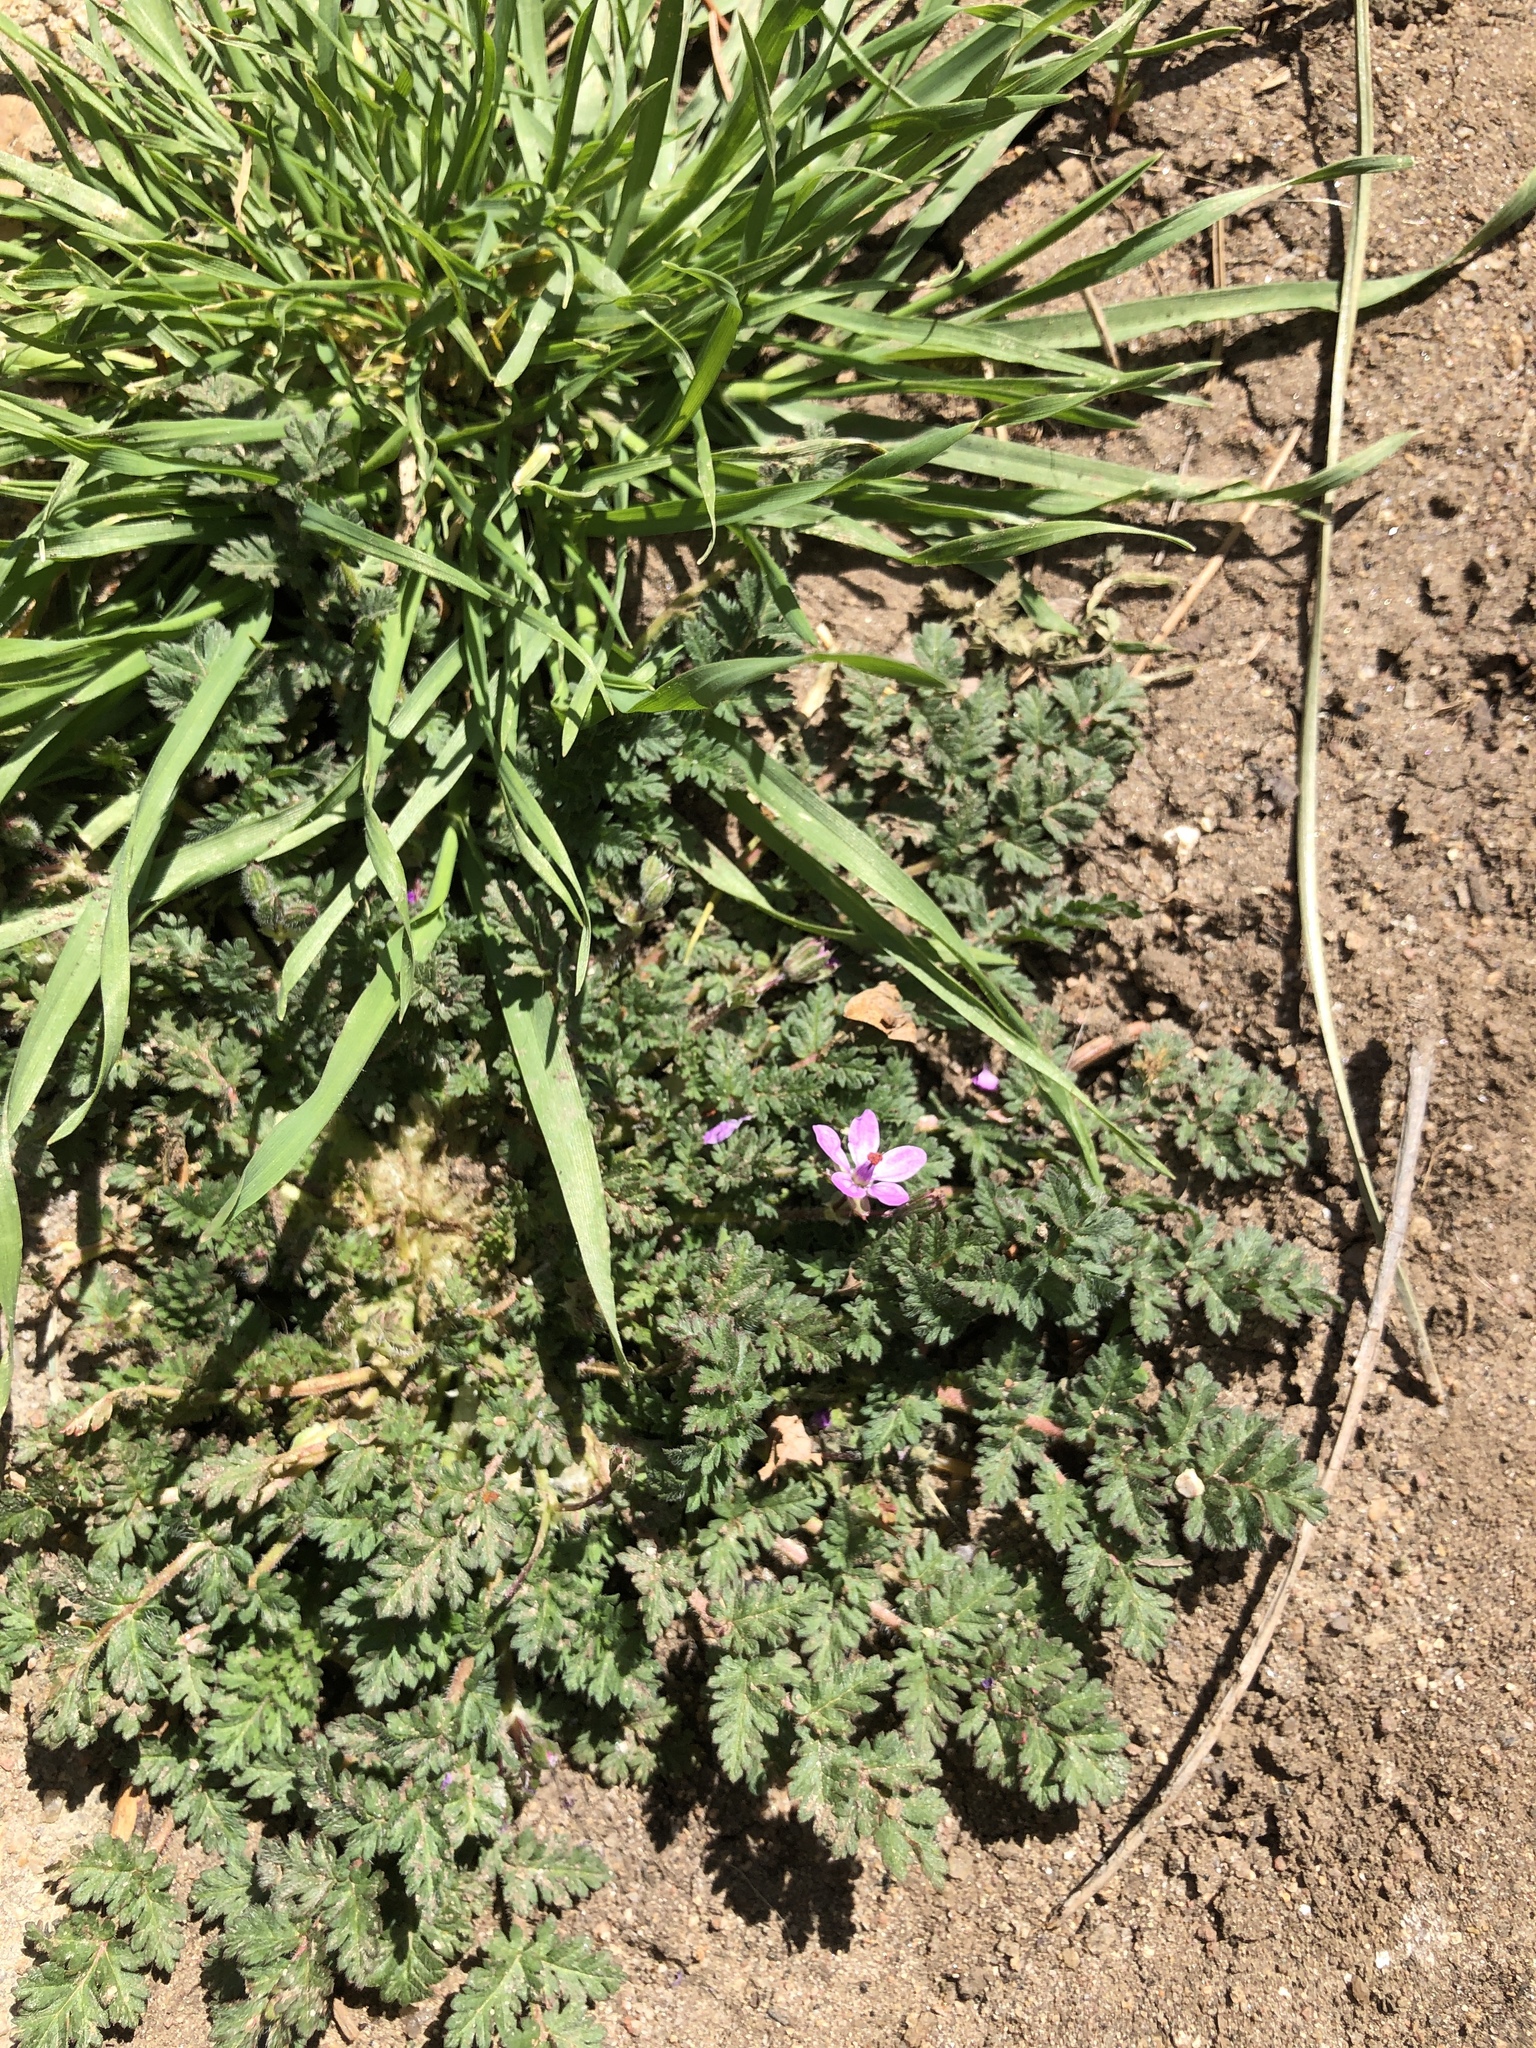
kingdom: Plantae
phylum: Tracheophyta
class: Magnoliopsida
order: Geraniales
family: Geraniaceae
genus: Erodium
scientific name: Erodium cicutarium
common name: Common stork's-bill
